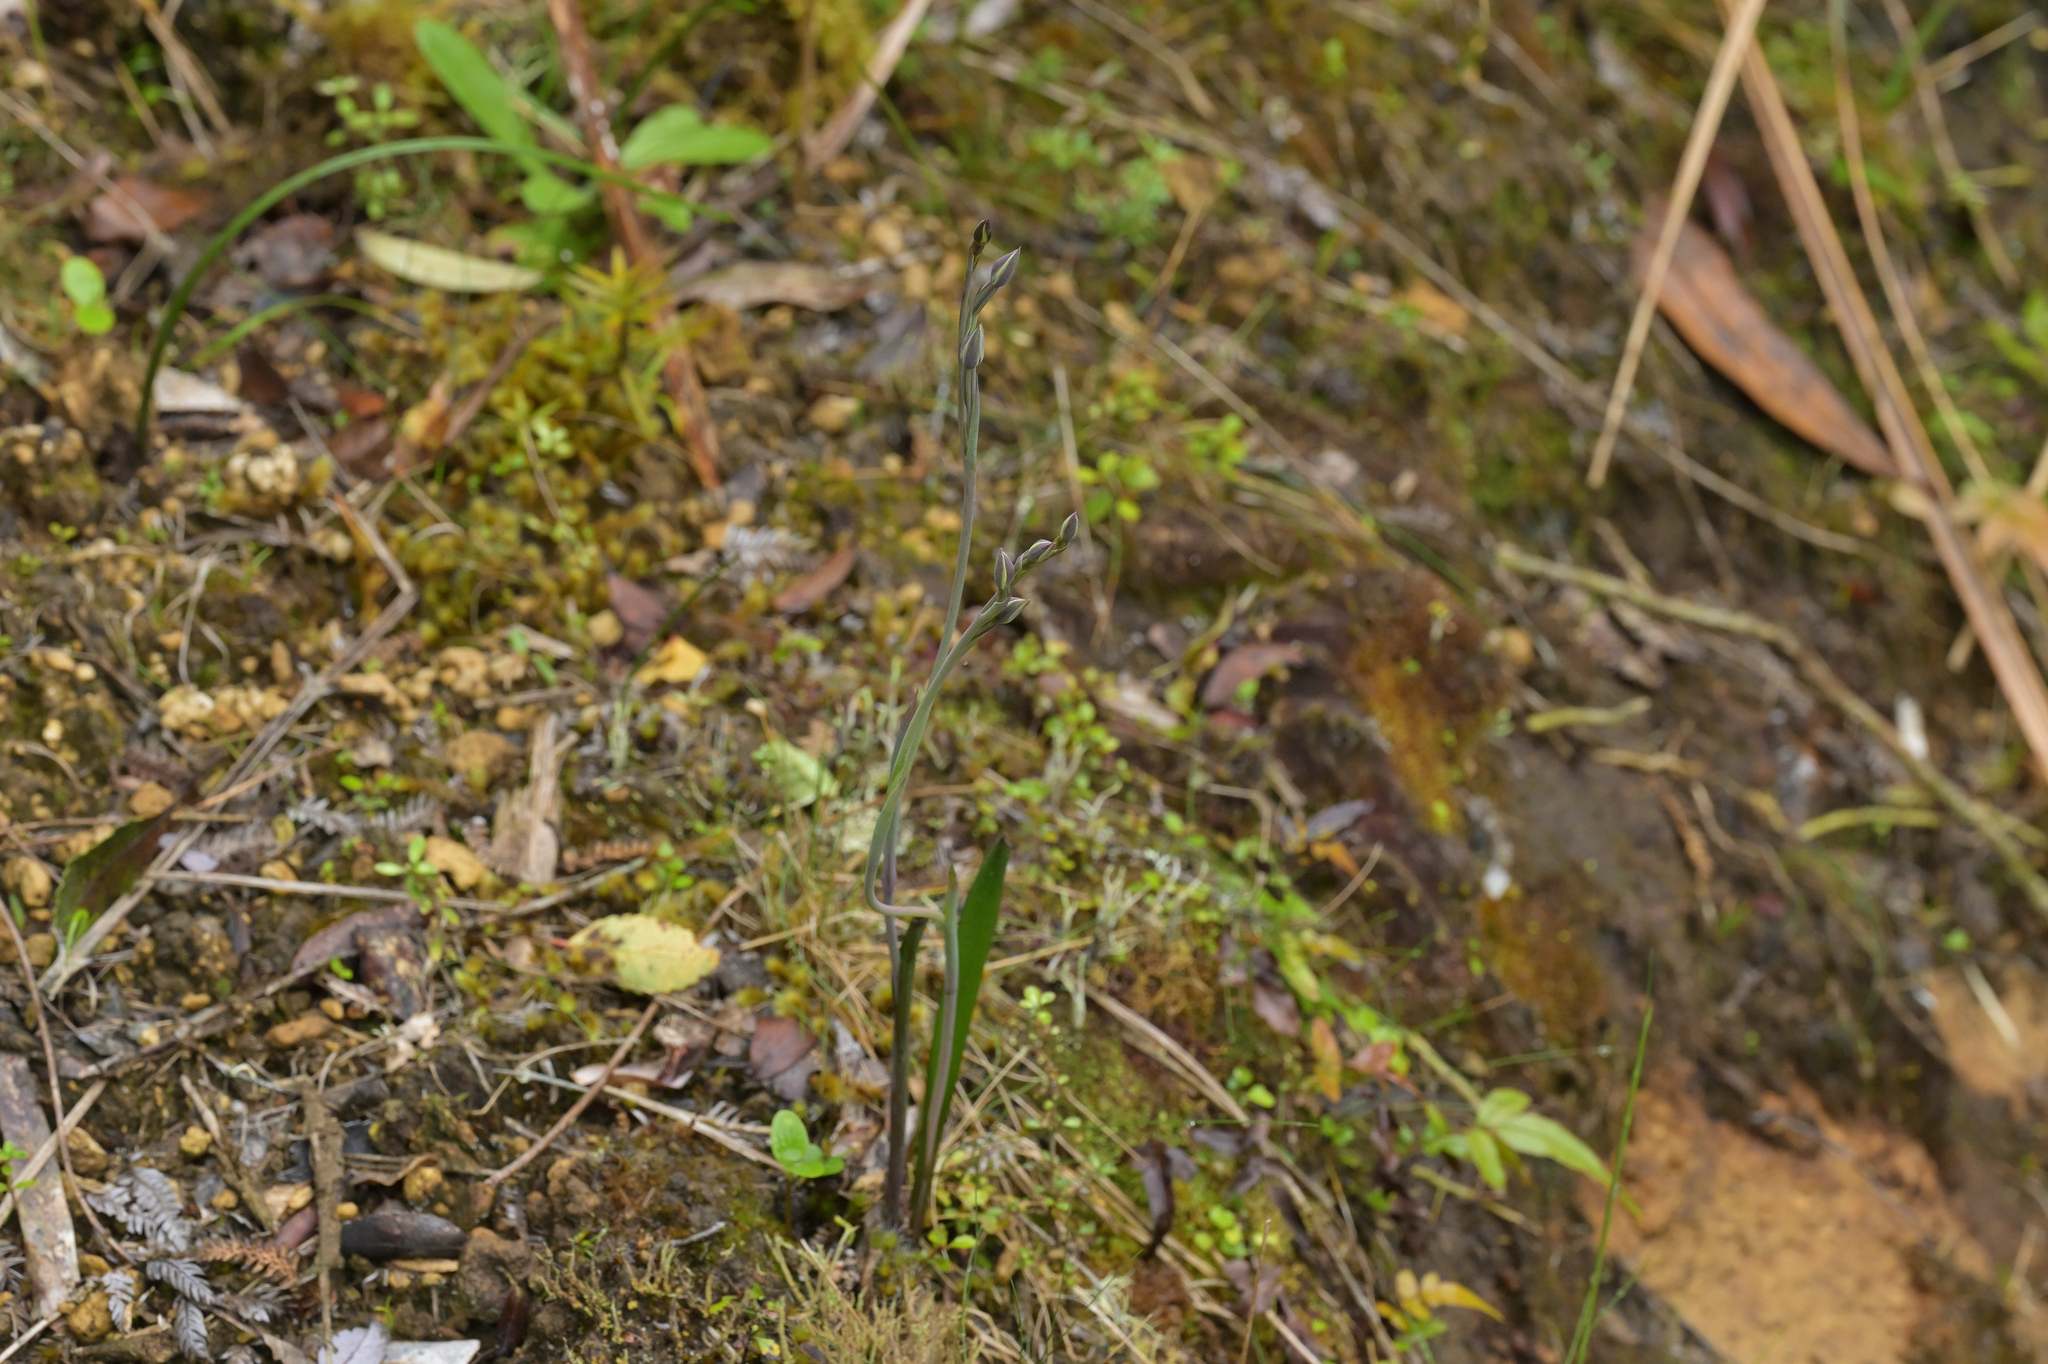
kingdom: Plantae
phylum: Tracheophyta
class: Liliopsida
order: Asparagales
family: Orchidaceae
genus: Thelymitra
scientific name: Thelymitra hatchii
